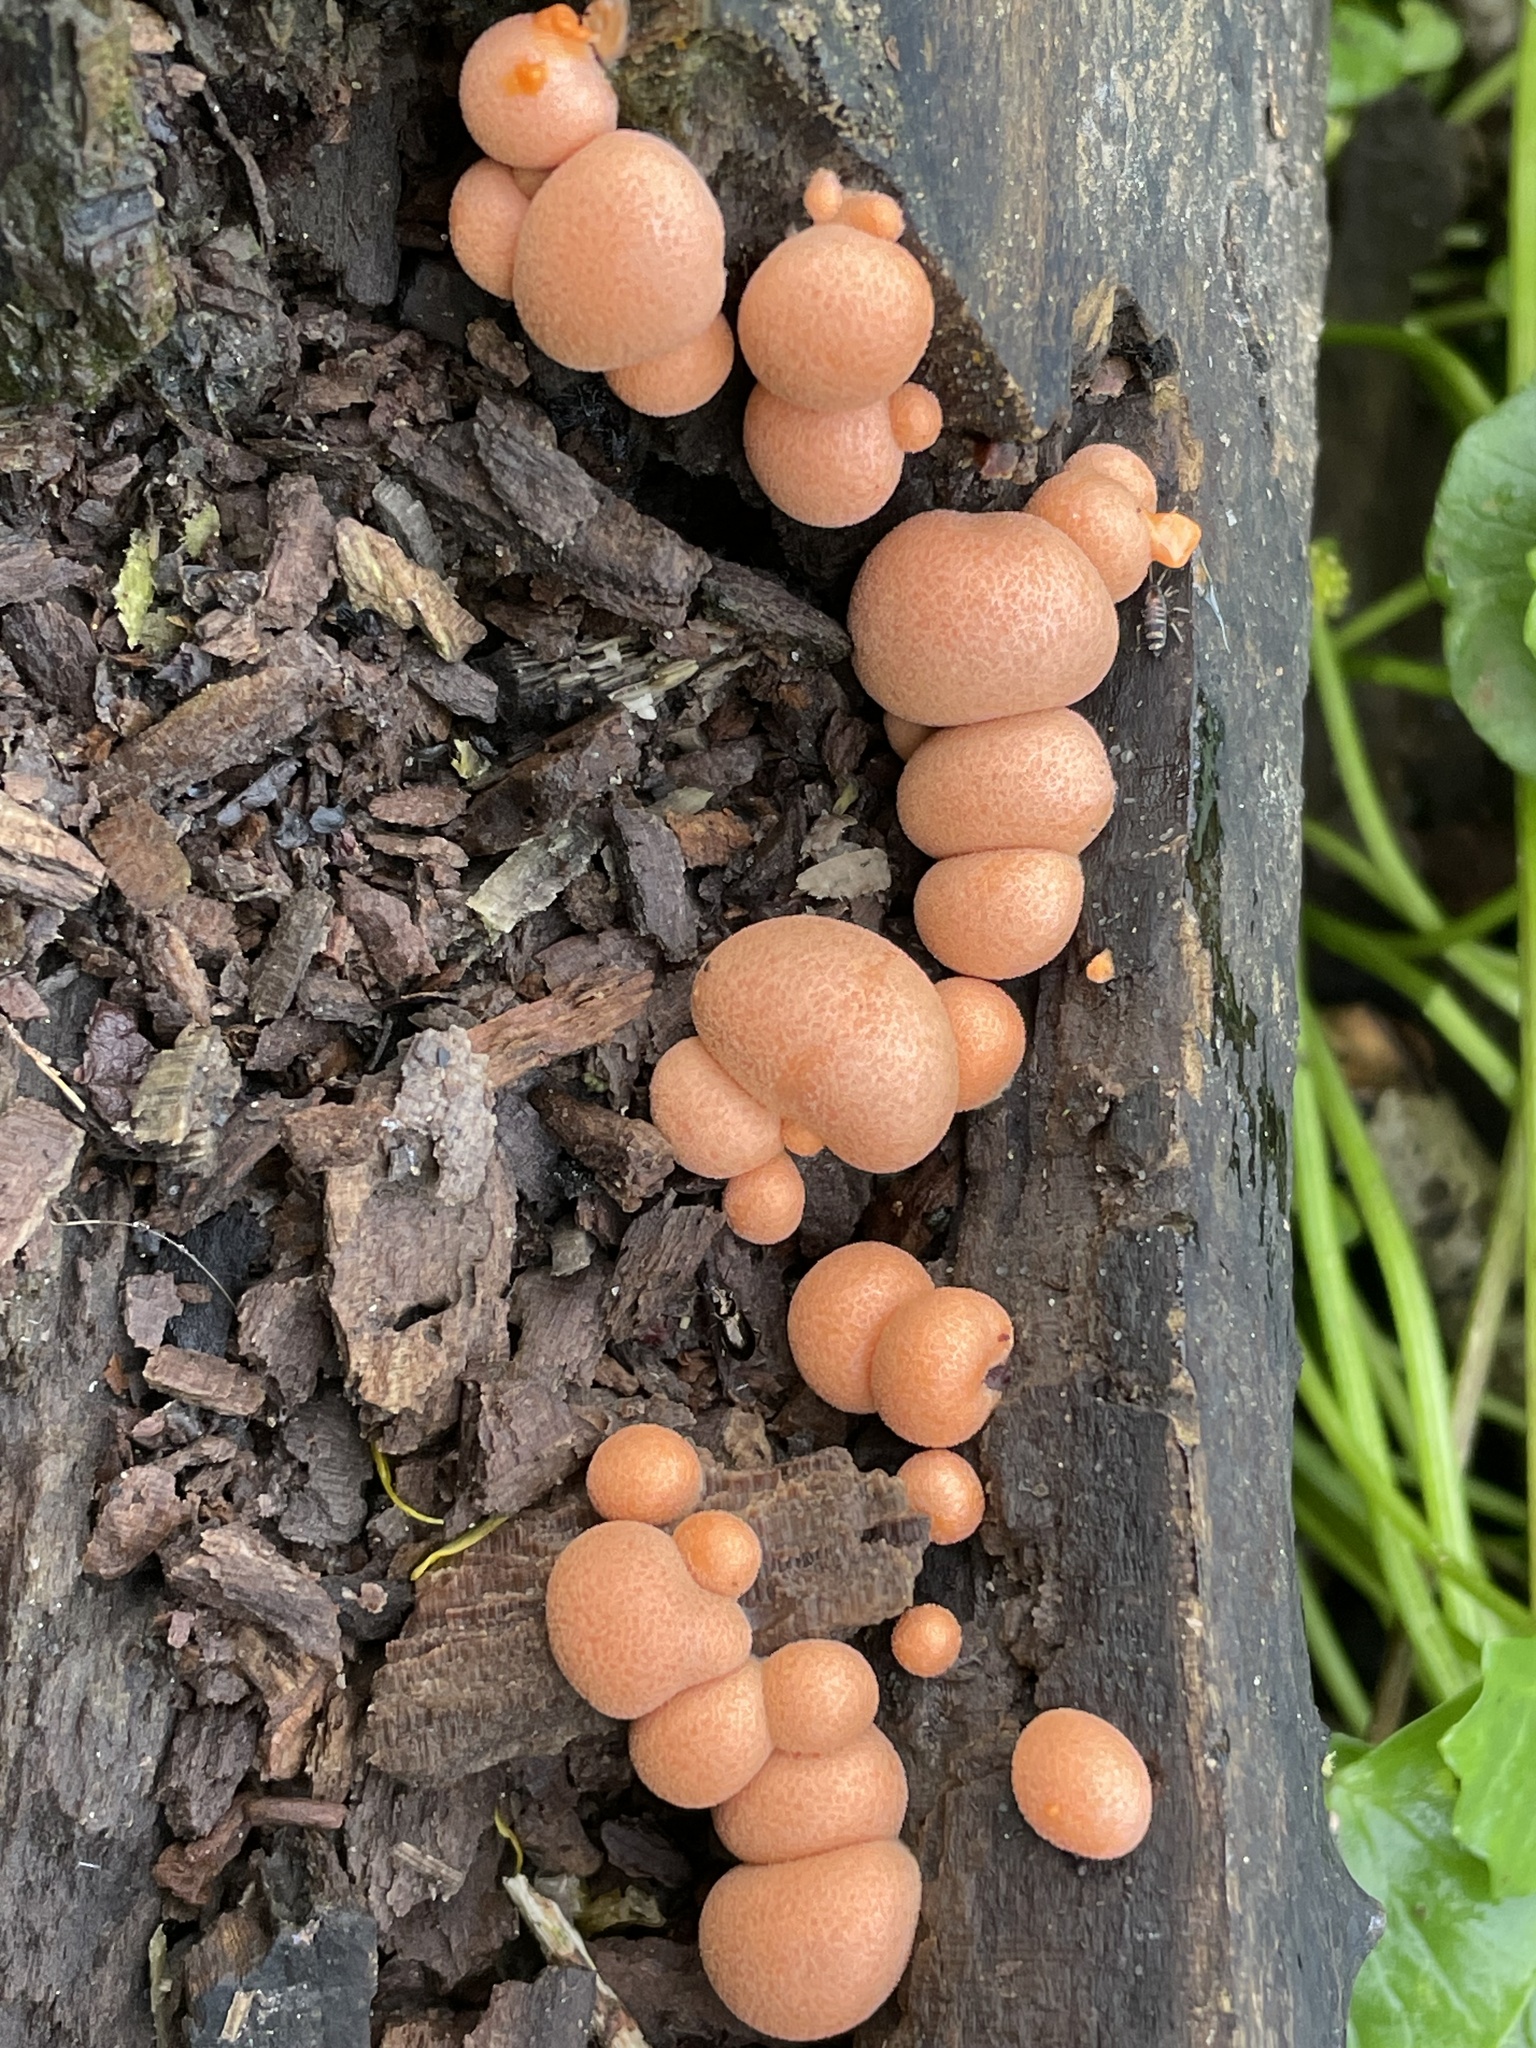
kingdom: Protozoa
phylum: Mycetozoa
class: Myxomycetes
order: Cribrariales
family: Tubiferaceae
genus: Lycogala
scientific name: Lycogala epidendrum
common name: Wolf's milk
